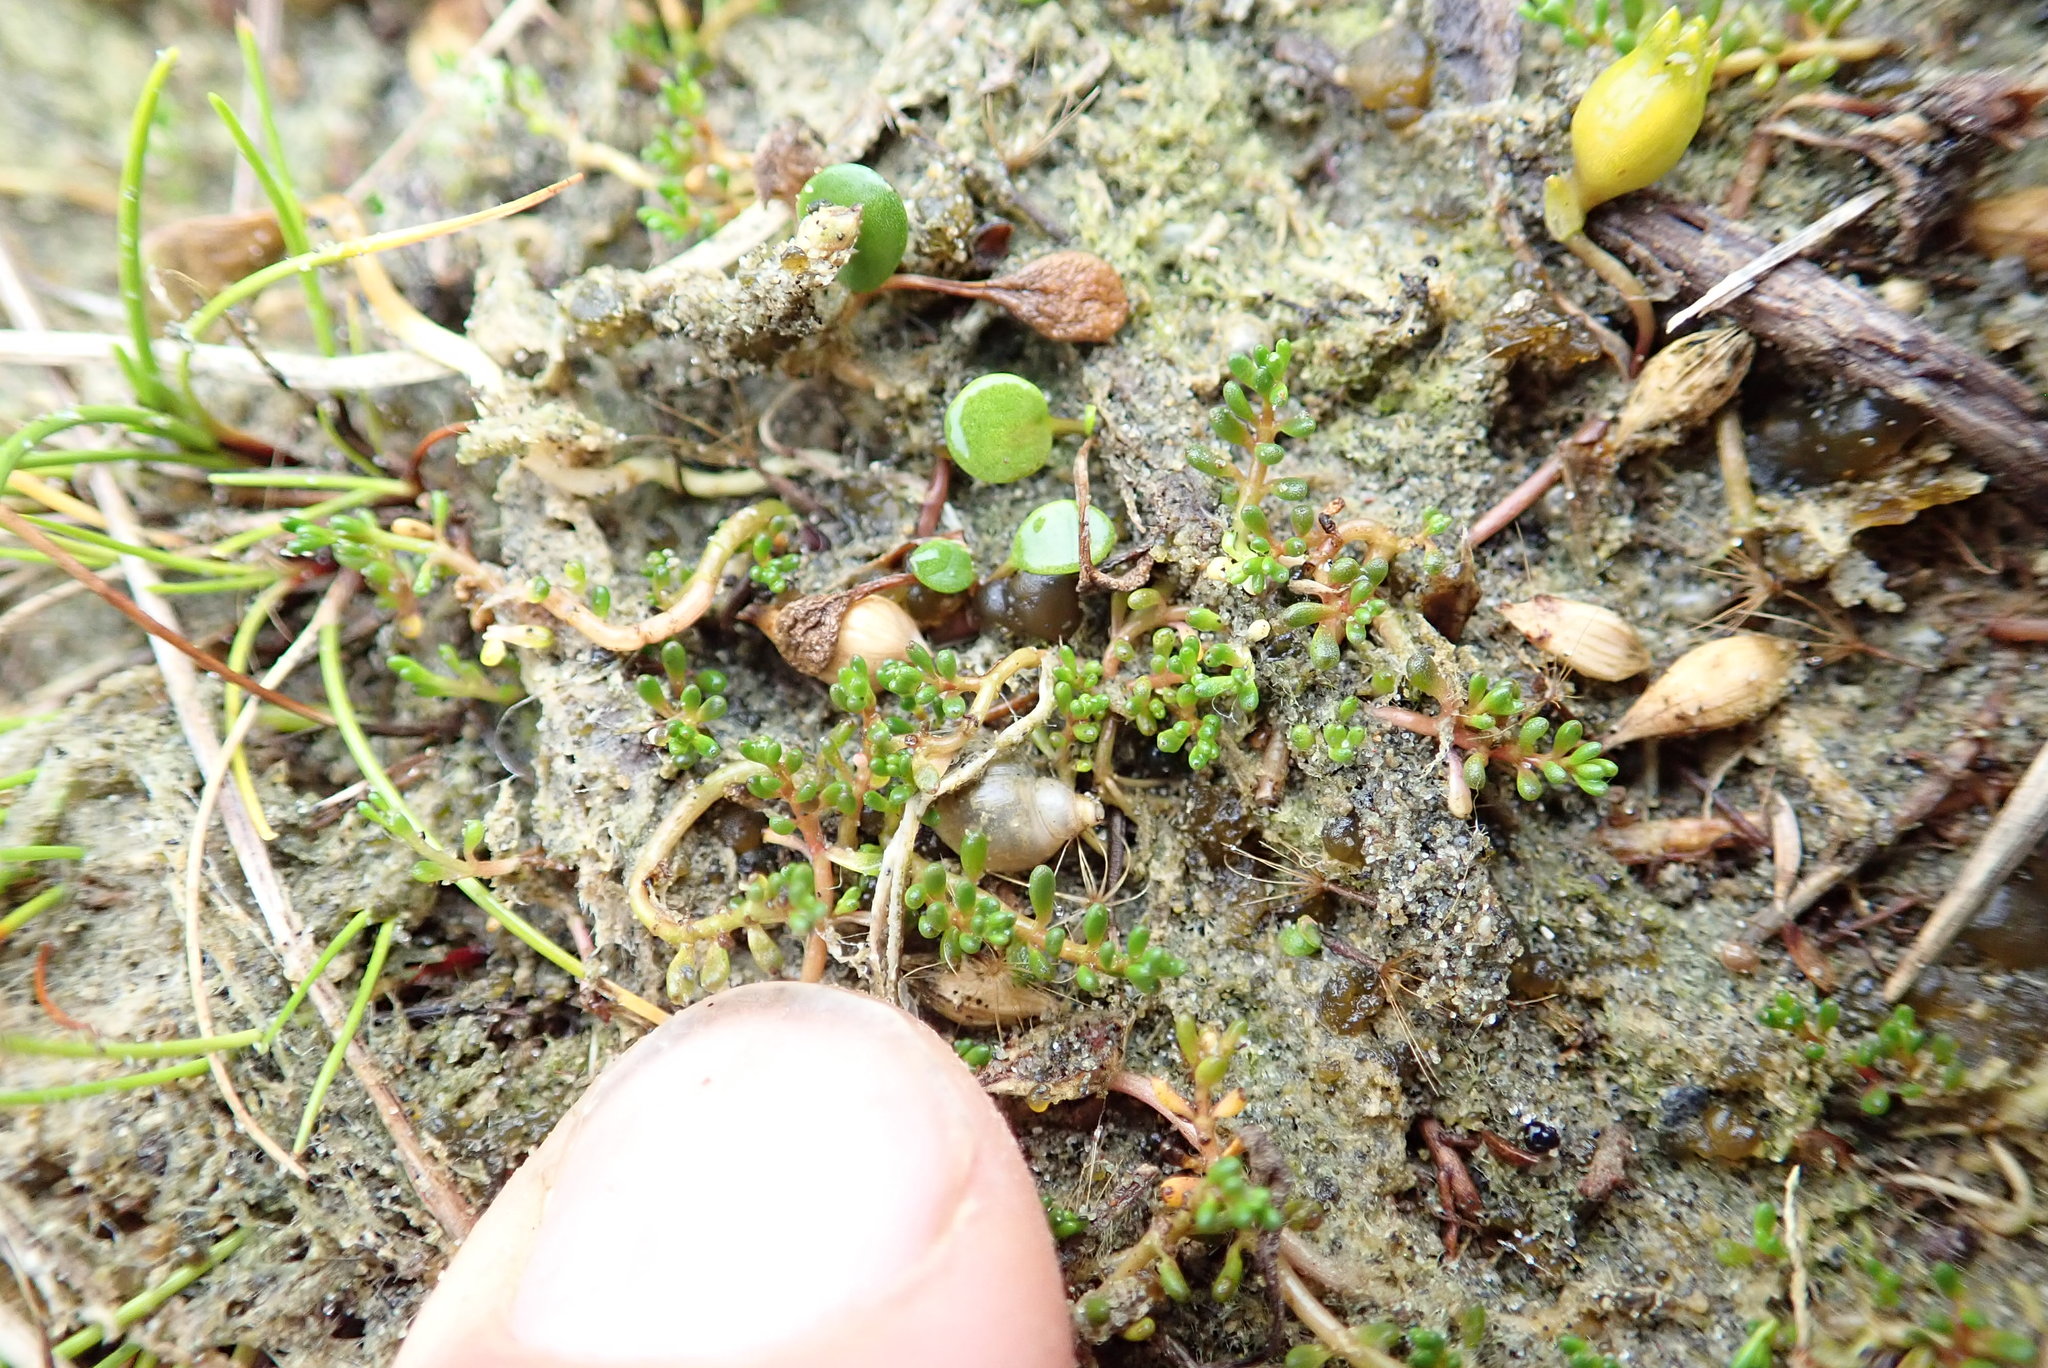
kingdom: Plantae
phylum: Tracheophyta
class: Magnoliopsida
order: Saxifragales
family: Haloragaceae
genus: Myriophyllum
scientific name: Myriophyllum votschii
